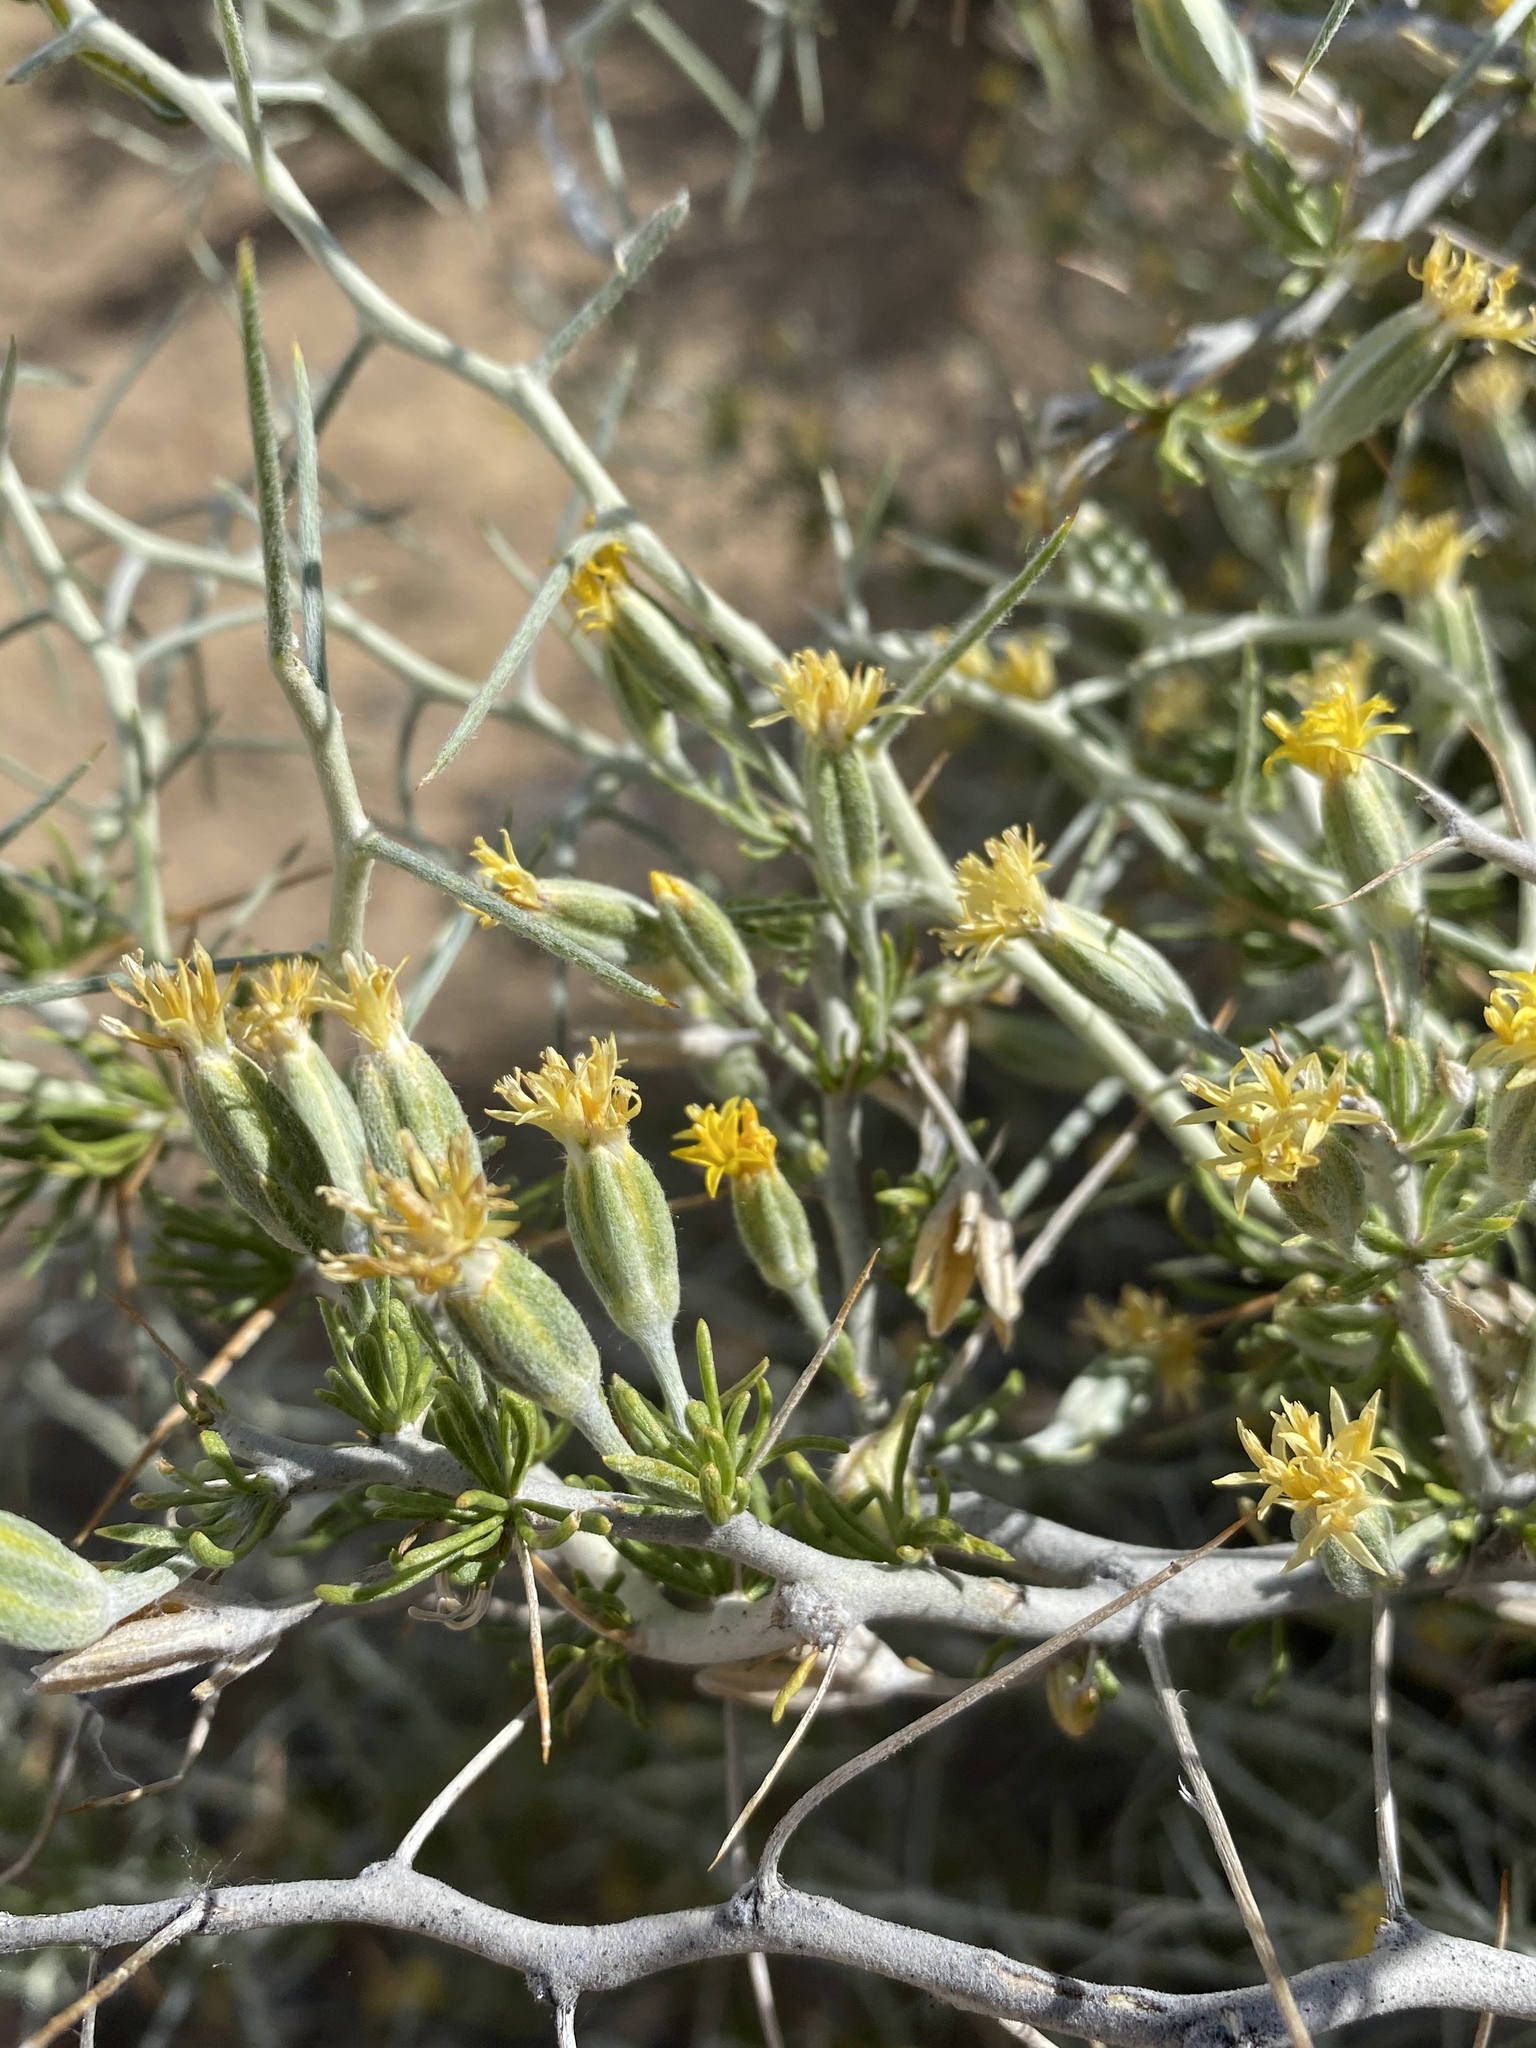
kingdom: Plantae
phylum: Tracheophyta
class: Magnoliopsida
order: Asterales
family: Asteraceae
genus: Tetradymia
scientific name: Tetradymia axillaris
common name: Long-spine horsebrush
